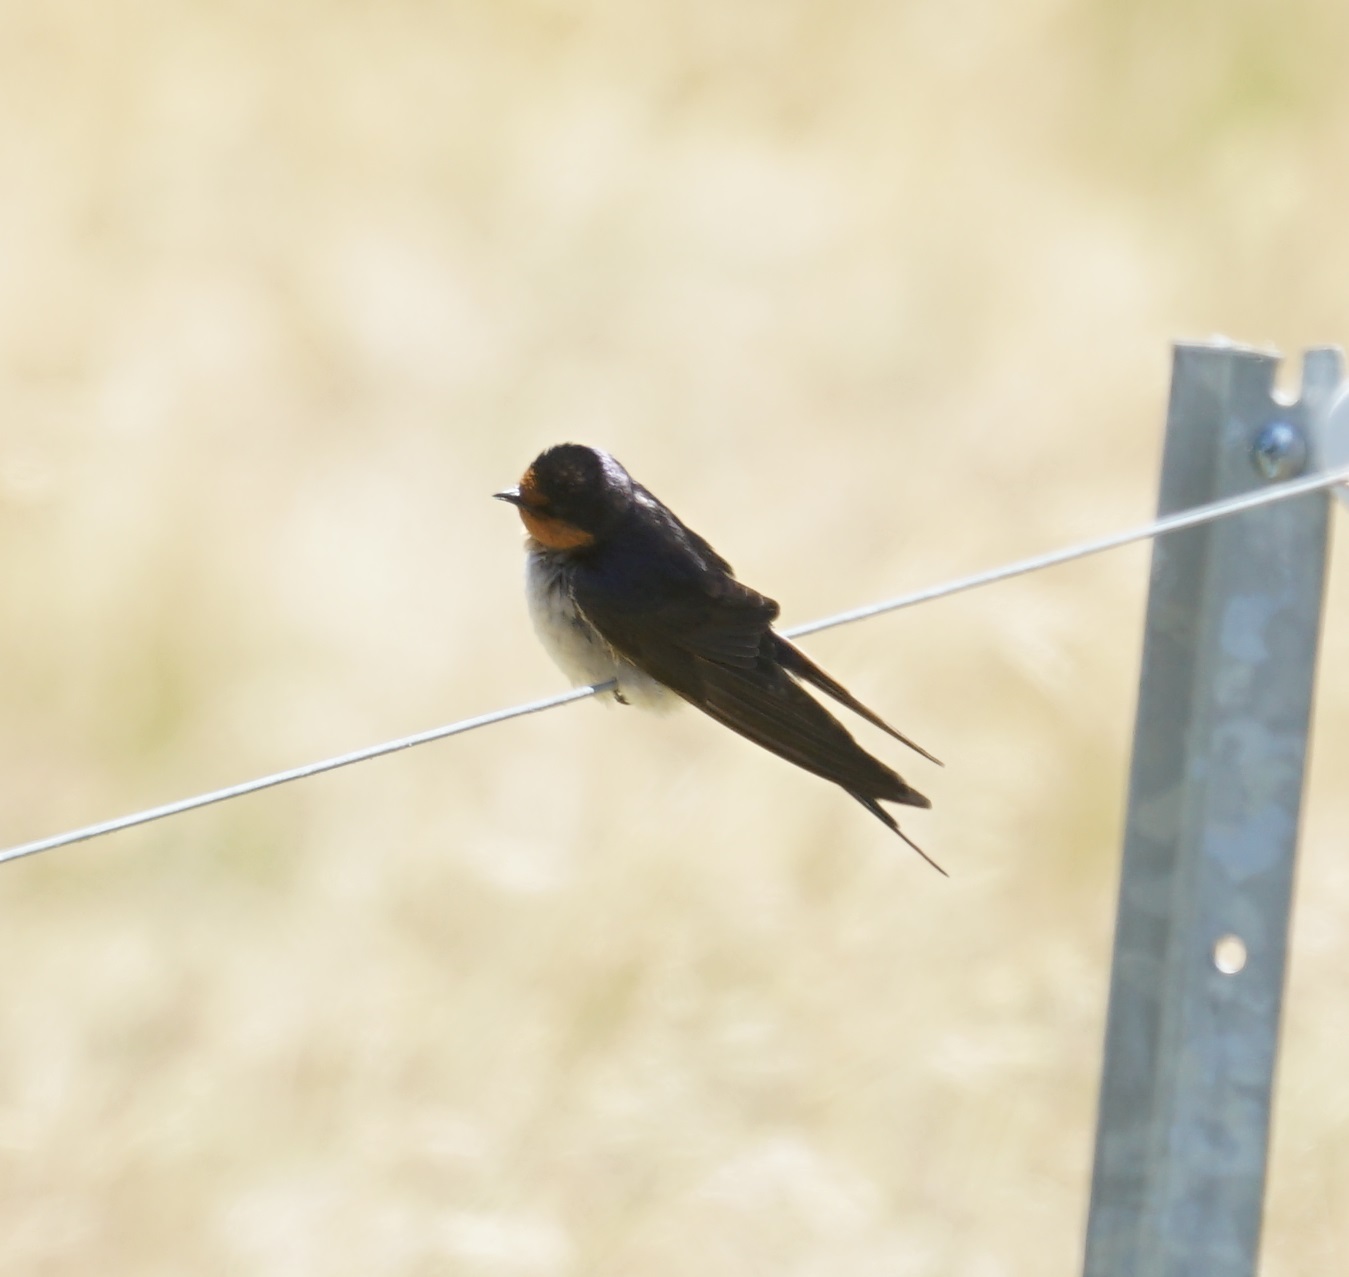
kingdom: Animalia
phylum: Chordata
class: Aves
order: Passeriformes
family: Hirundinidae
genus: Hirundo
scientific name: Hirundo neoxena
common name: Welcome swallow
